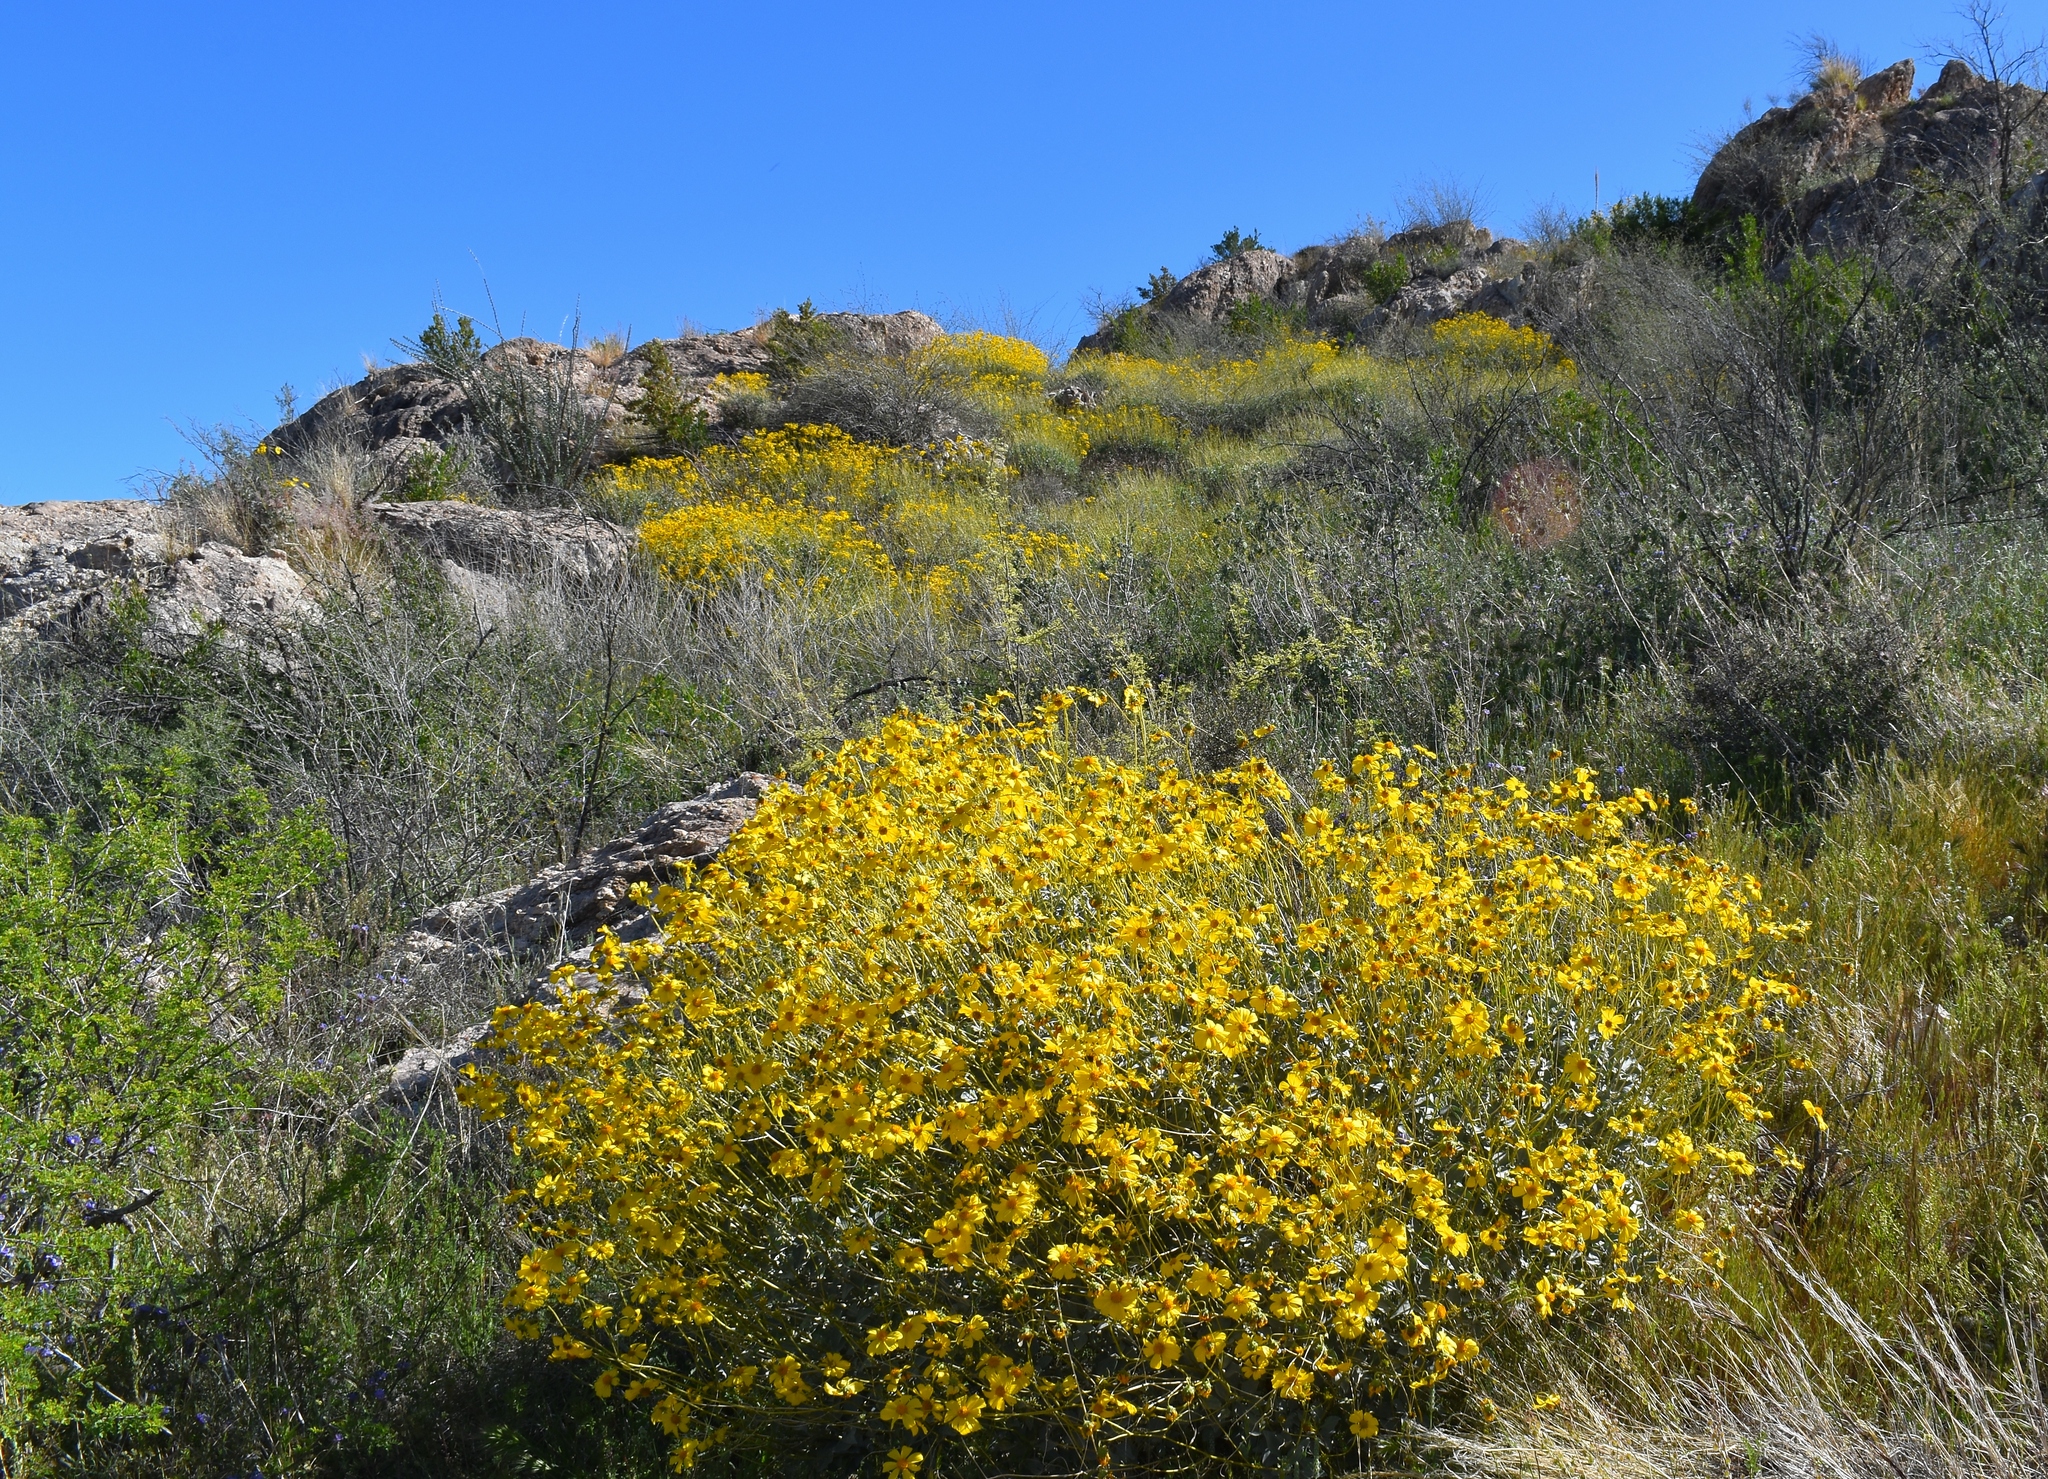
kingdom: Plantae
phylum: Tracheophyta
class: Magnoliopsida
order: Asterales
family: Asteraceae
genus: Encelia
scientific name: Encelia farinosa
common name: Brittlebush
